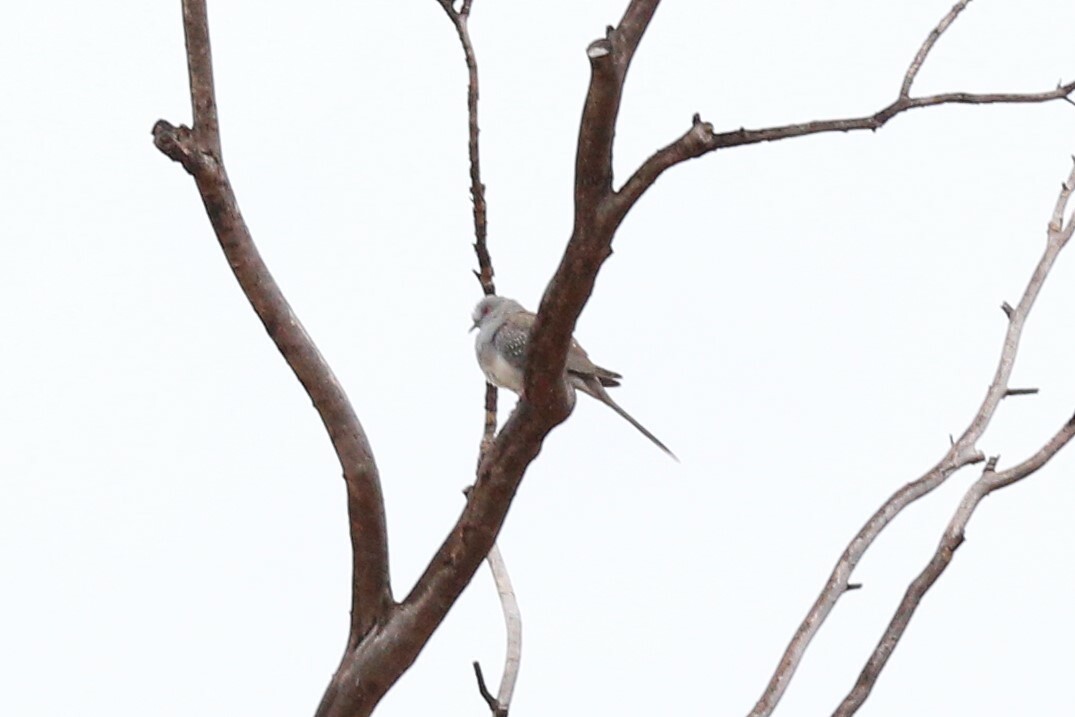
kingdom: Animalia
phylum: Chordata
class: Aves
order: Columbiformes
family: Columbidae
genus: Geopelia
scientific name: Geopelia cuneata
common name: Diamond dove
